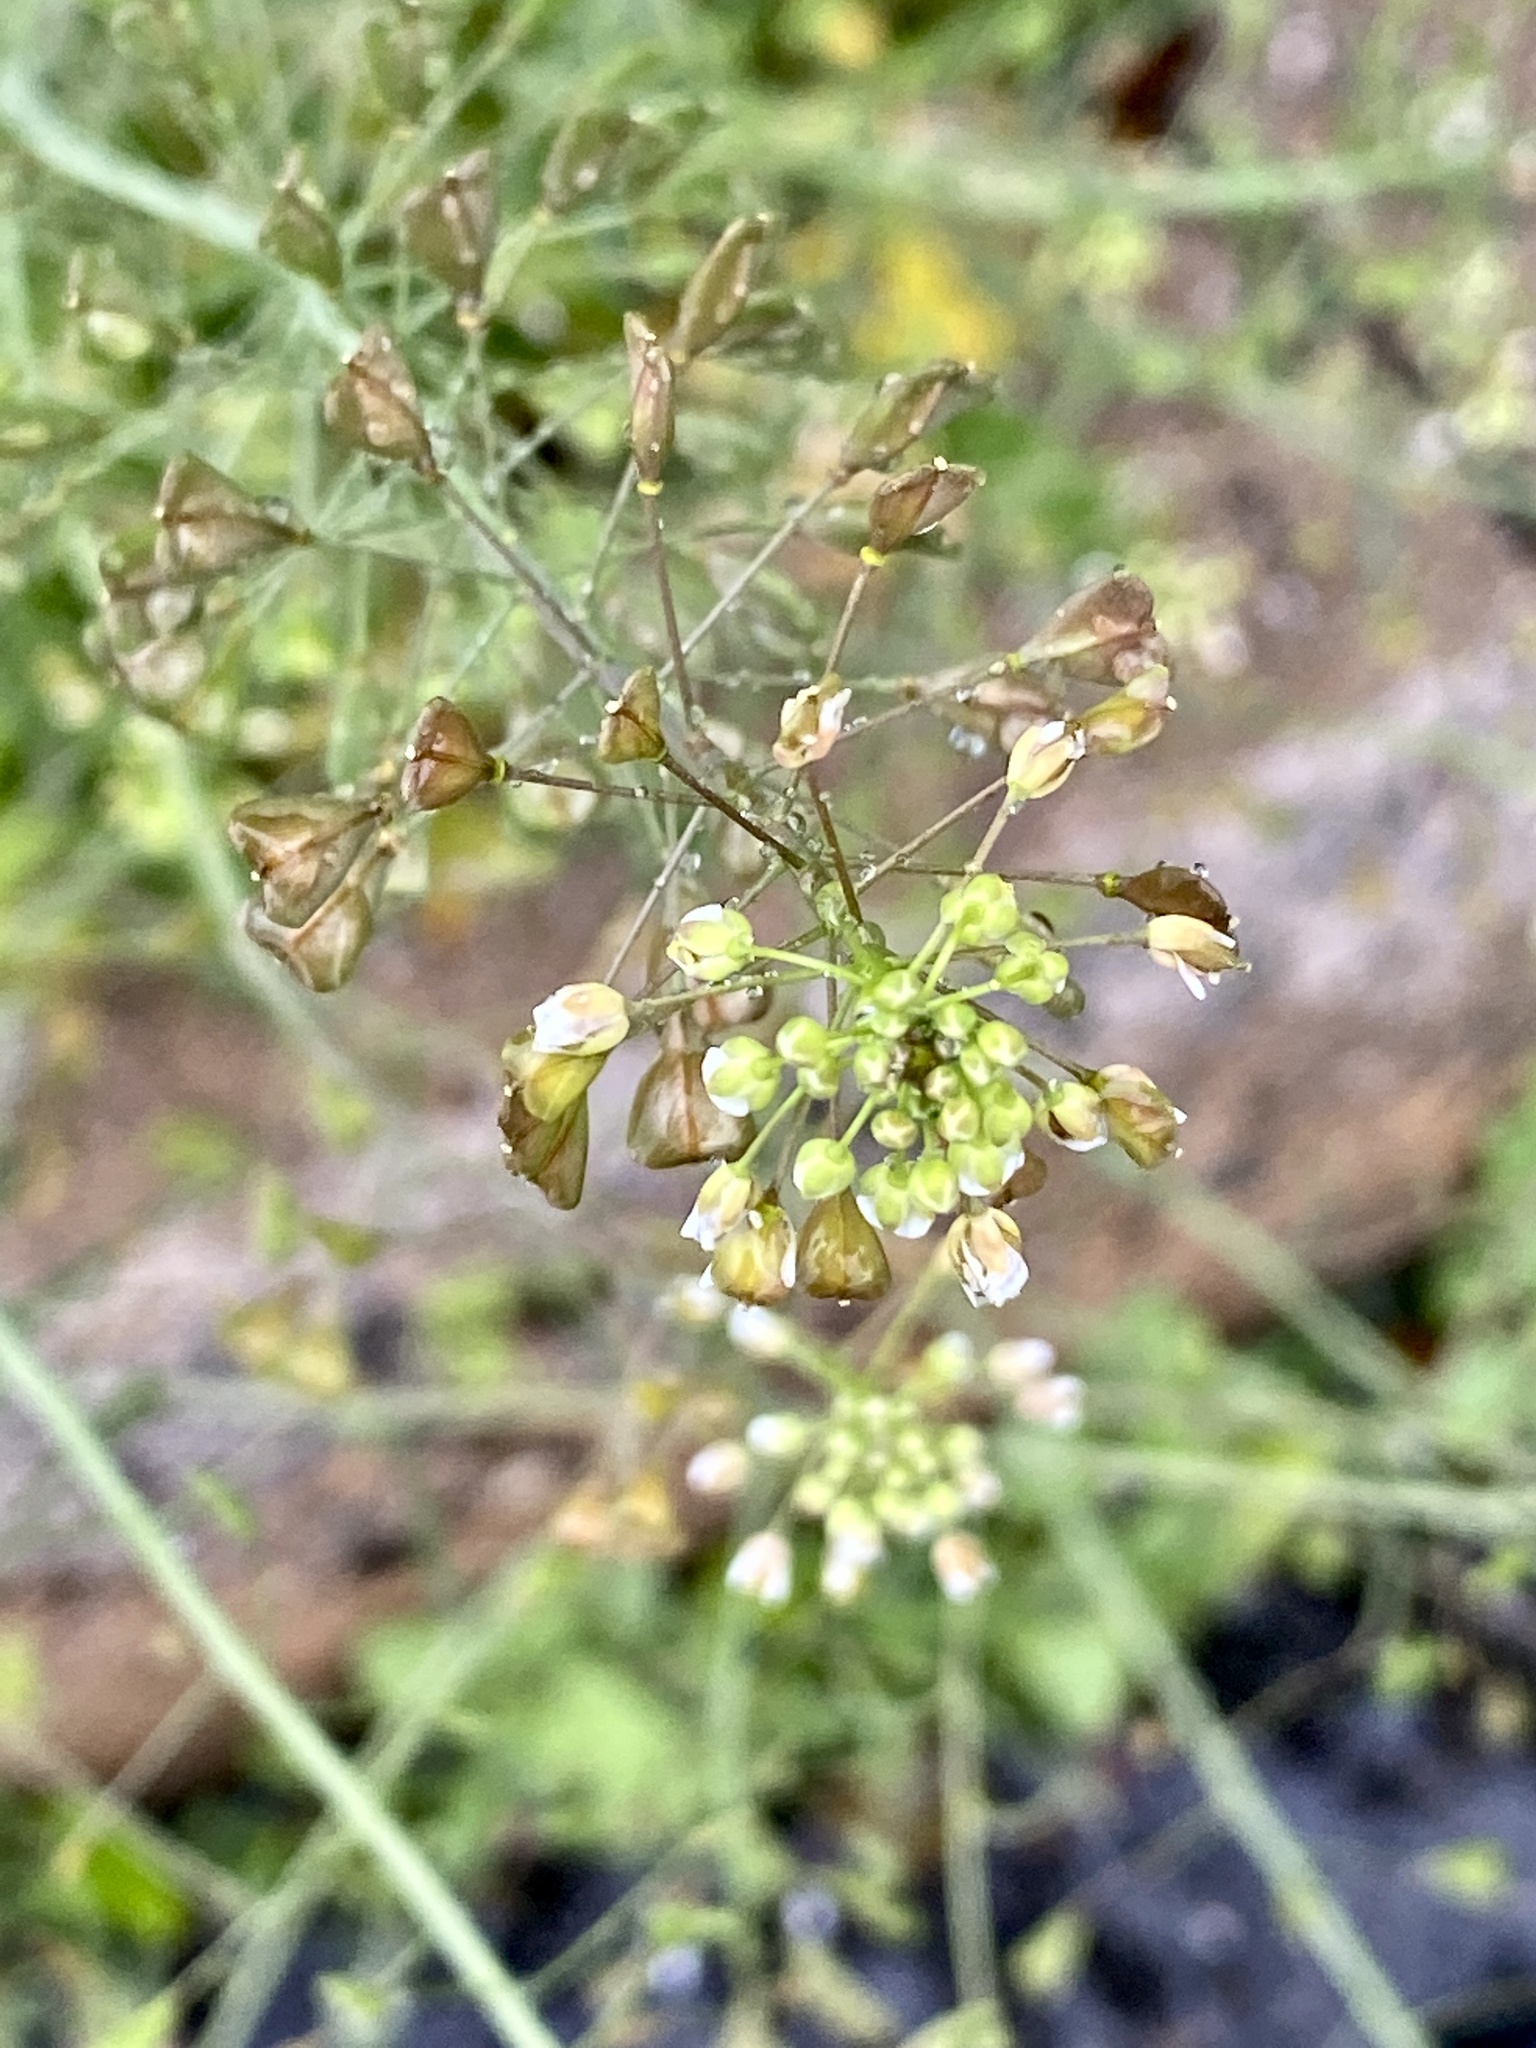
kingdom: Plantae
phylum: Tracheophyta
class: Magnoliopsida
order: Brassicales
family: Brassicaceae
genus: Capsella
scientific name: Capsella bursa-pastoris
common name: Shepherd's purse
